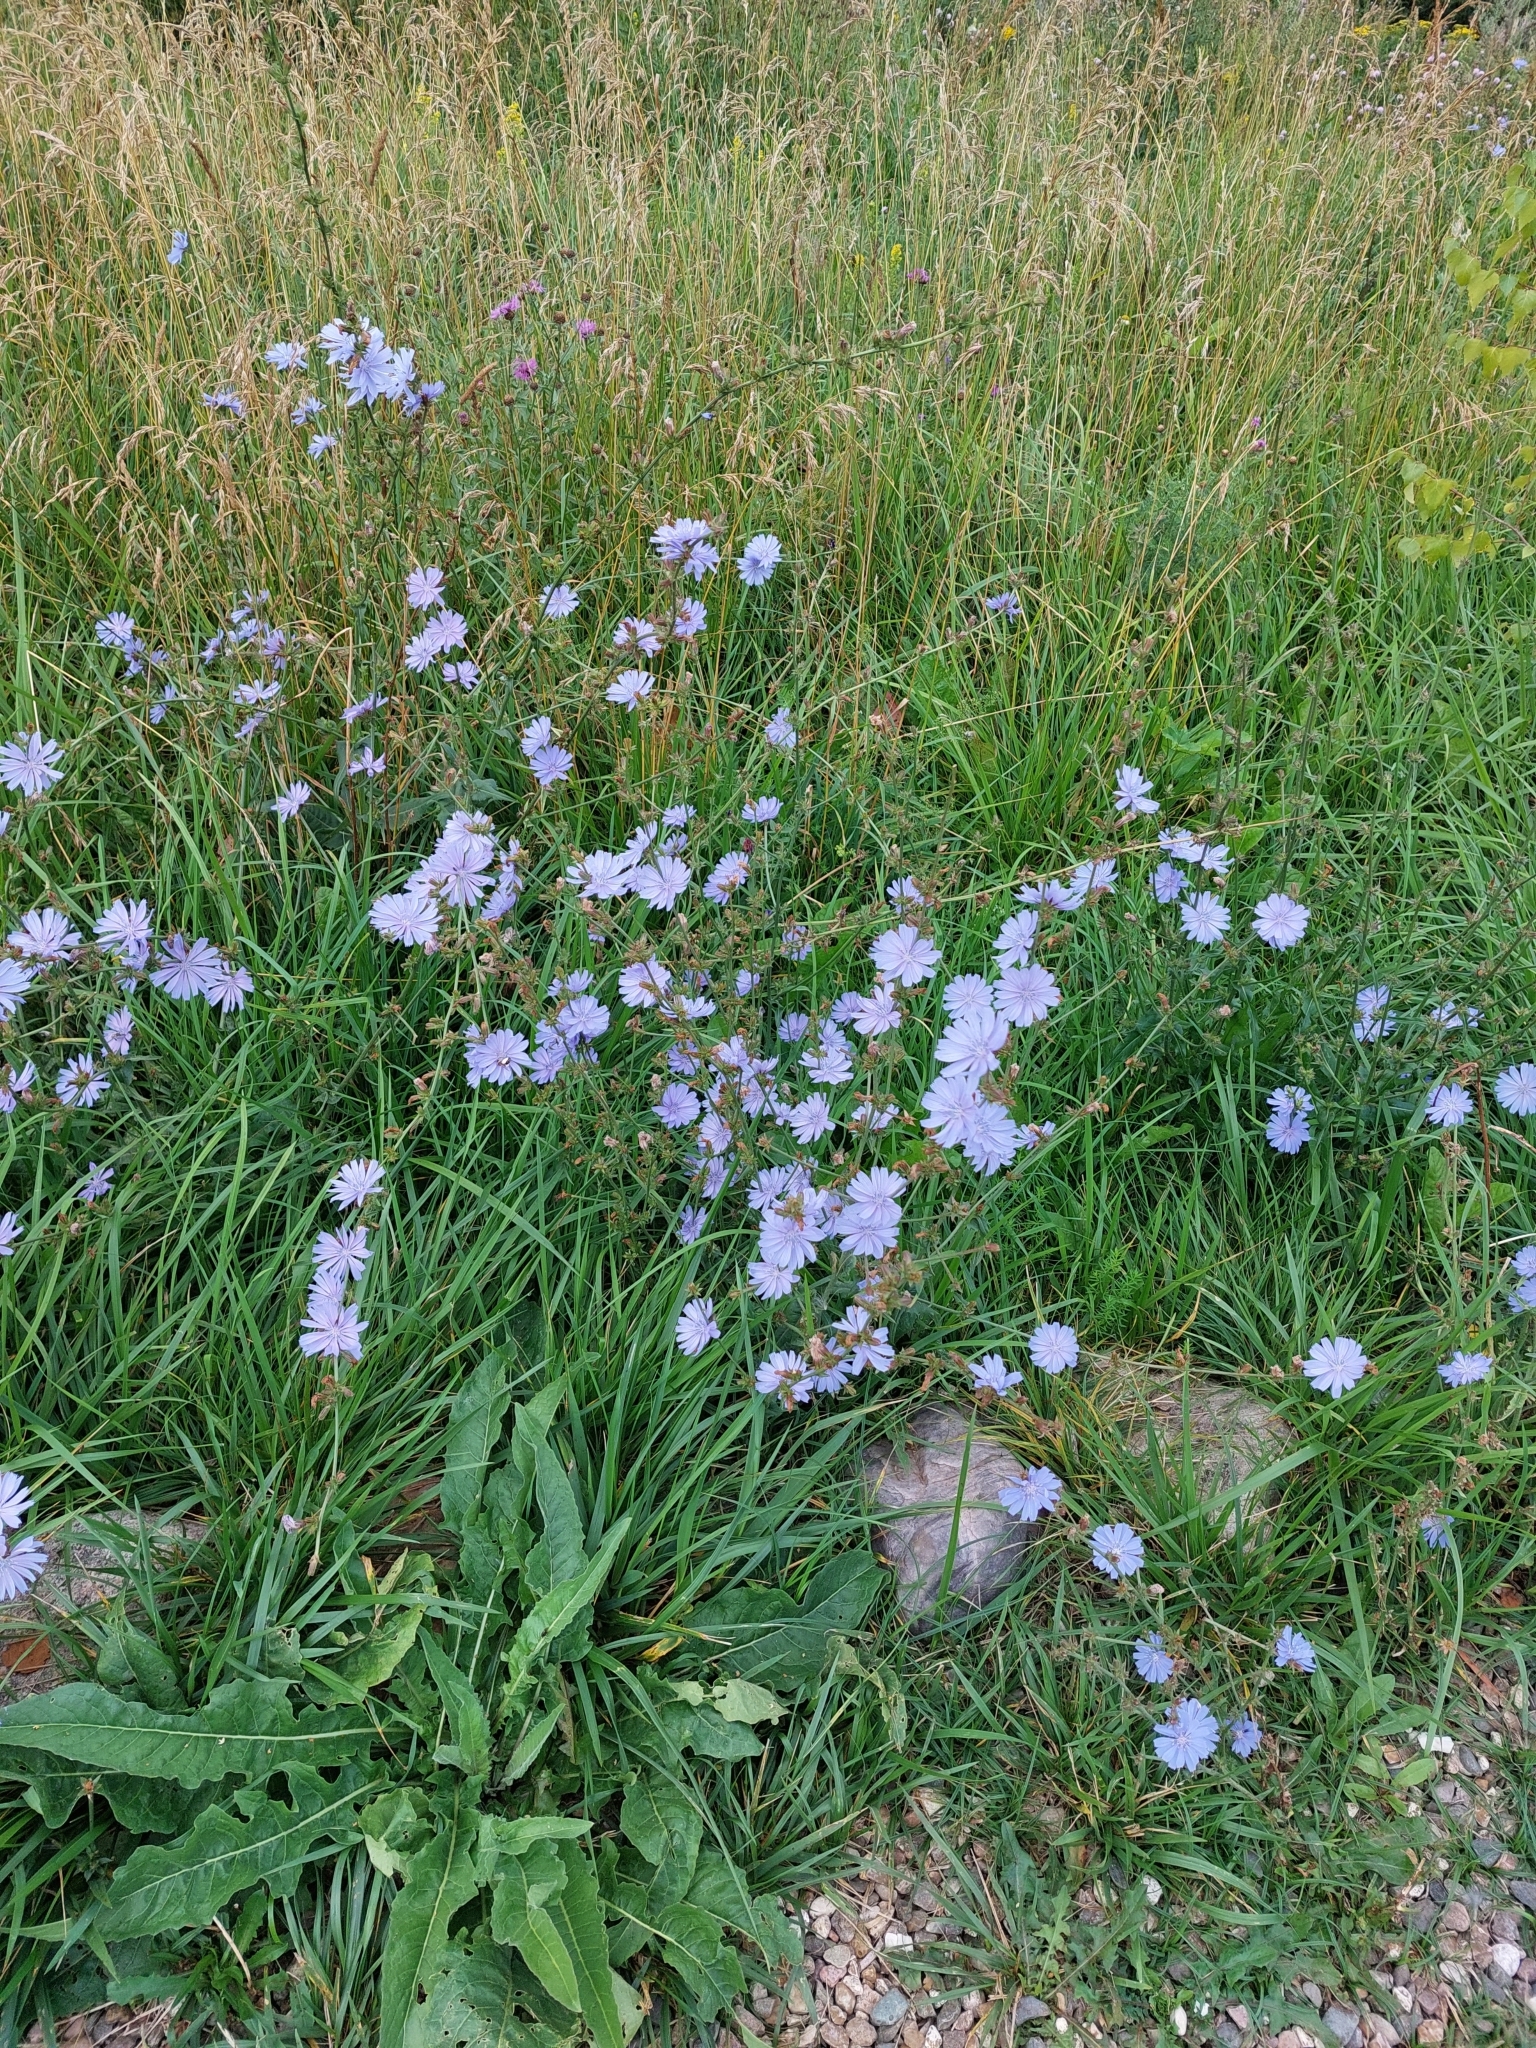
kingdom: Plantae
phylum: Tracheophyta
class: Magnoliopsida
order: Asterales
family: Asteraceae
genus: Cichorium
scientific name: Cichorium intybus
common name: Chicory
